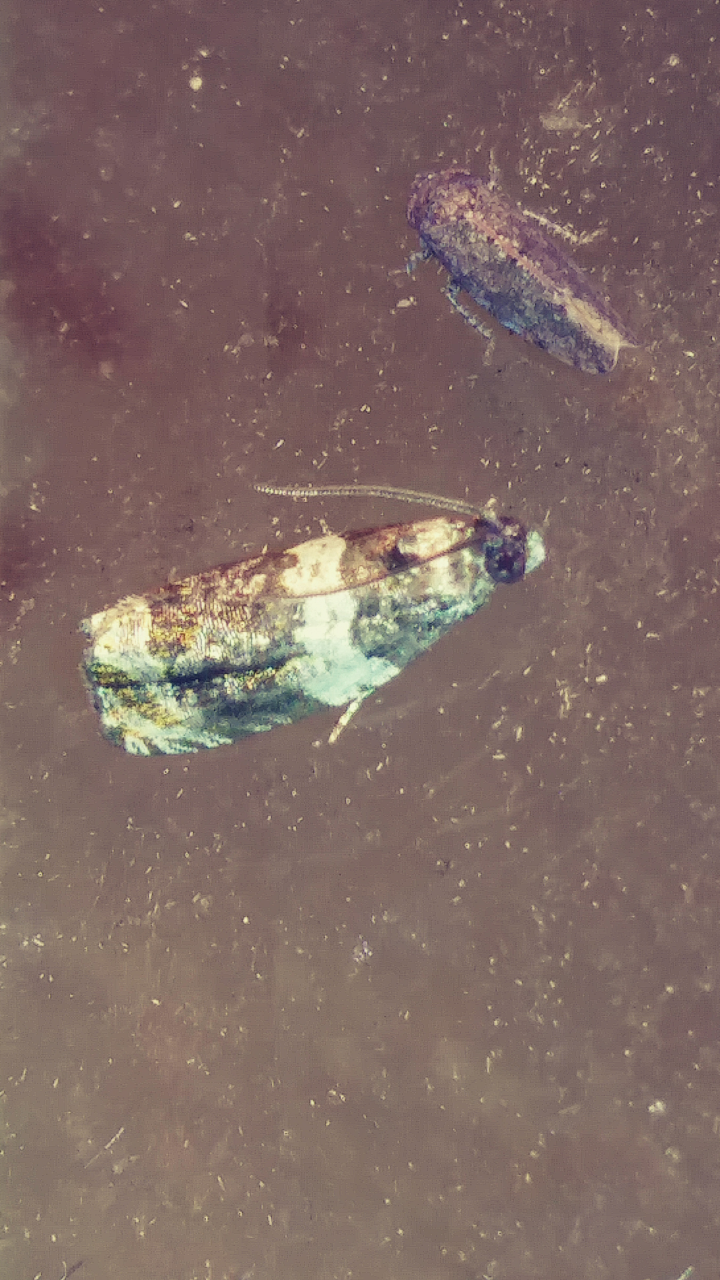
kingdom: Animalia
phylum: Arthropoda
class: Insecta
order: Lepidoptera
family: Tortricidae
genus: Olethreutes
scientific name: Olethreutes fasciatana
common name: Banded olethreutes moth
